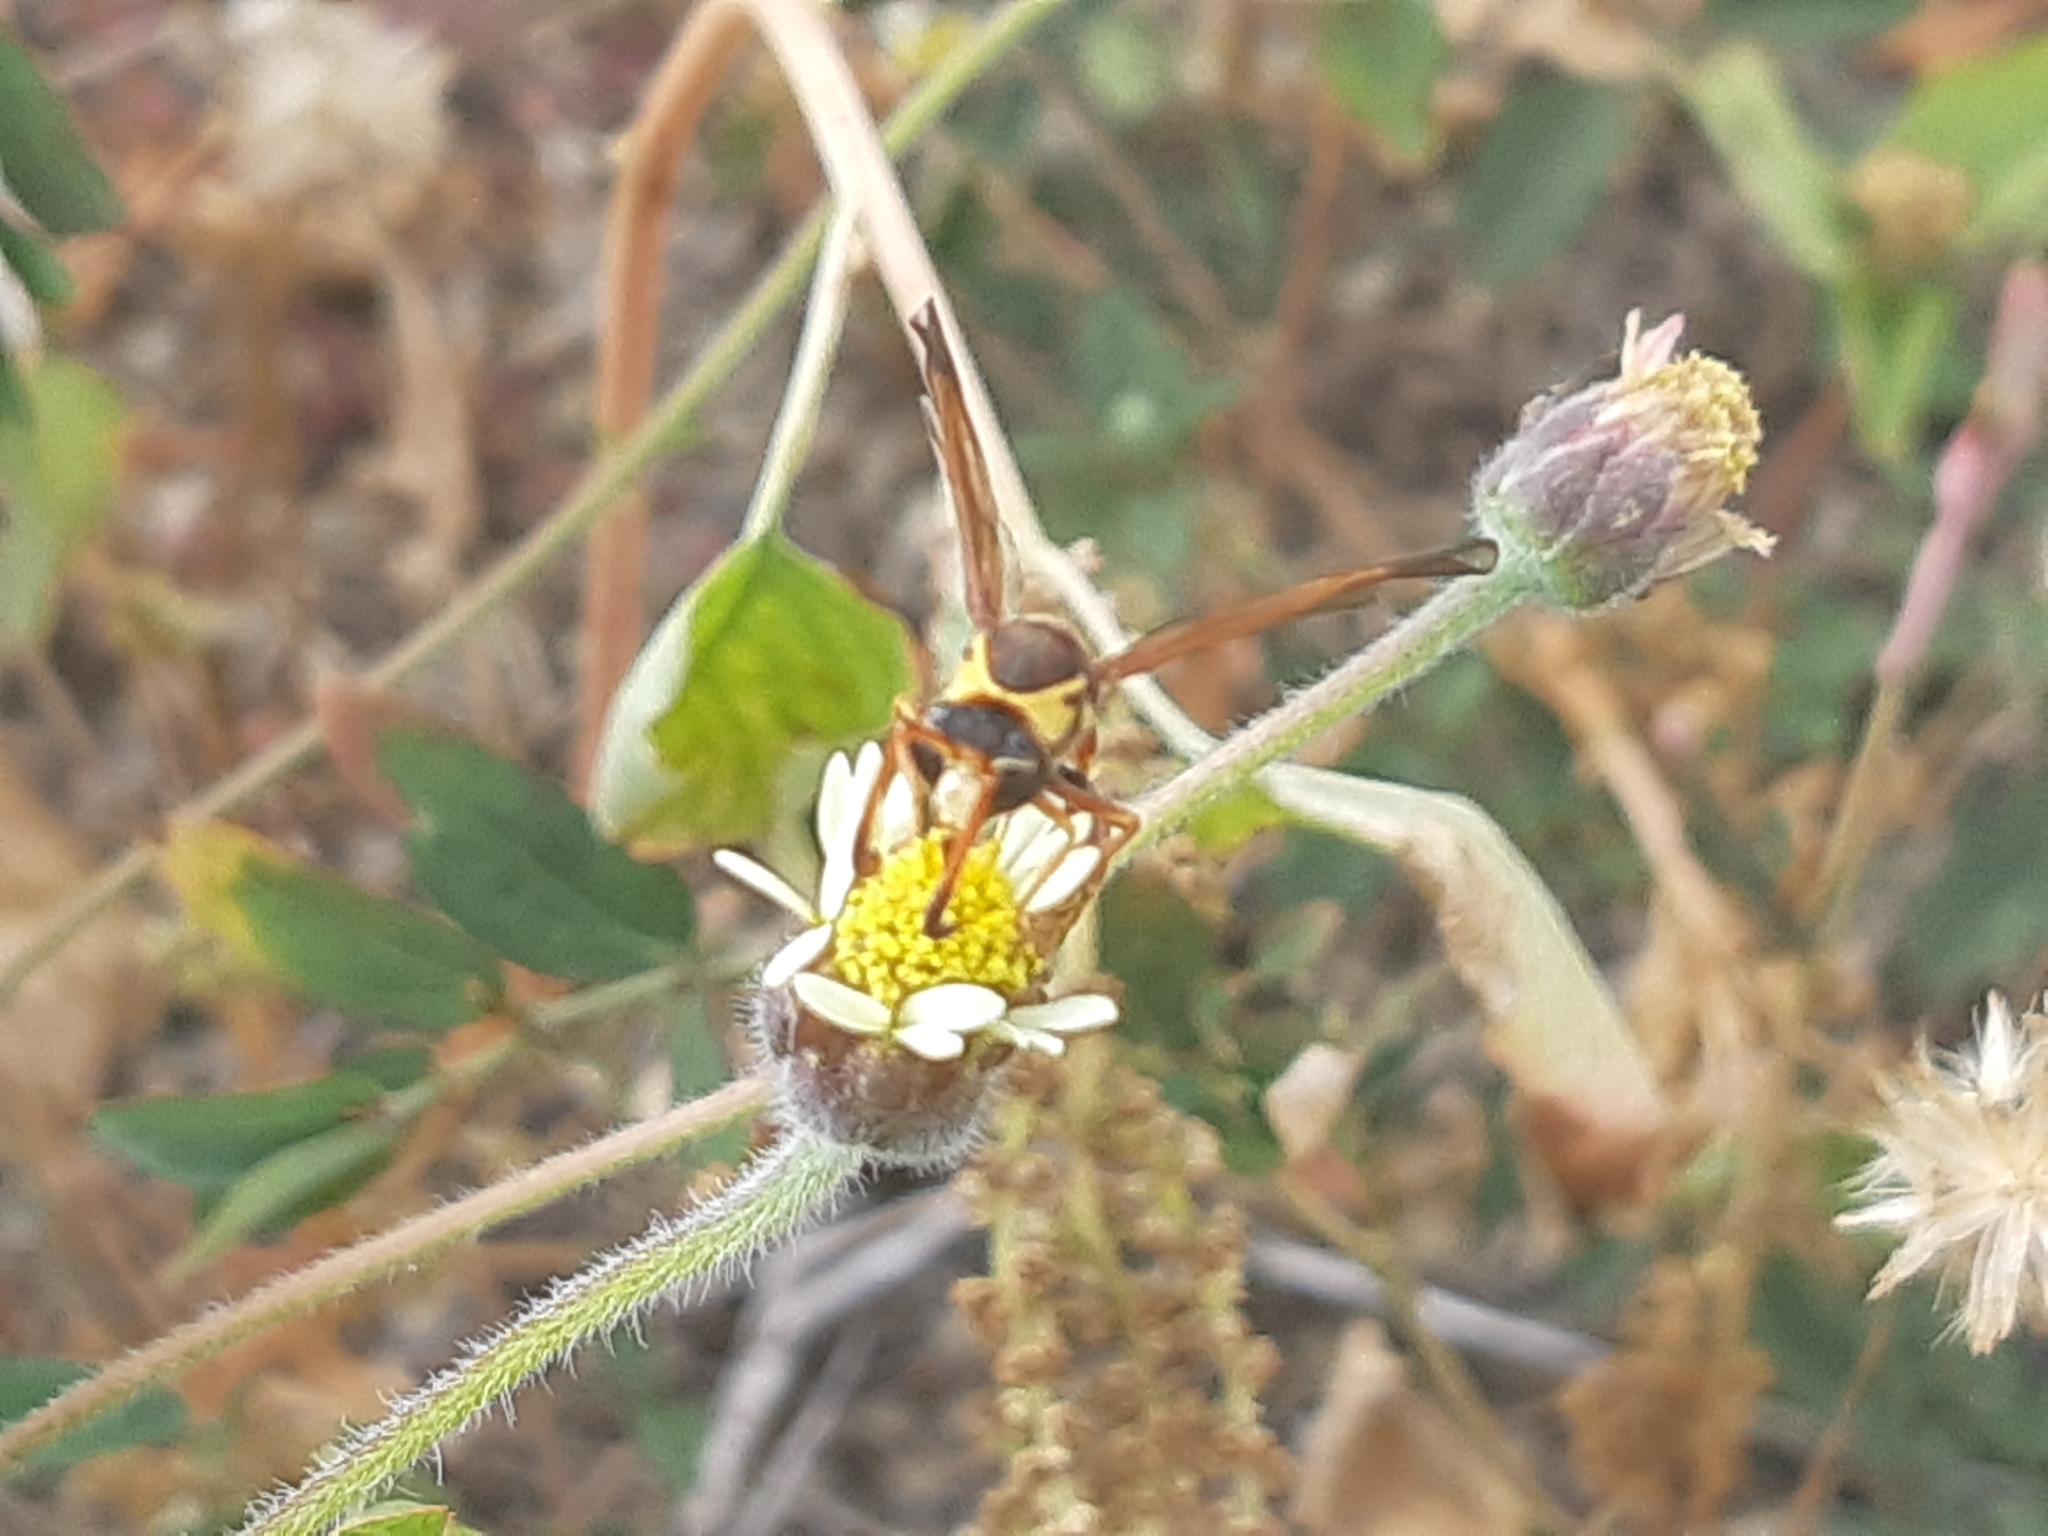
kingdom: Animalia
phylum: Arthropoda
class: Insecta
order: Hymenoptera
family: Eumenidae
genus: Zeta
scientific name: Zeta argillaceum
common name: Potter wasp
